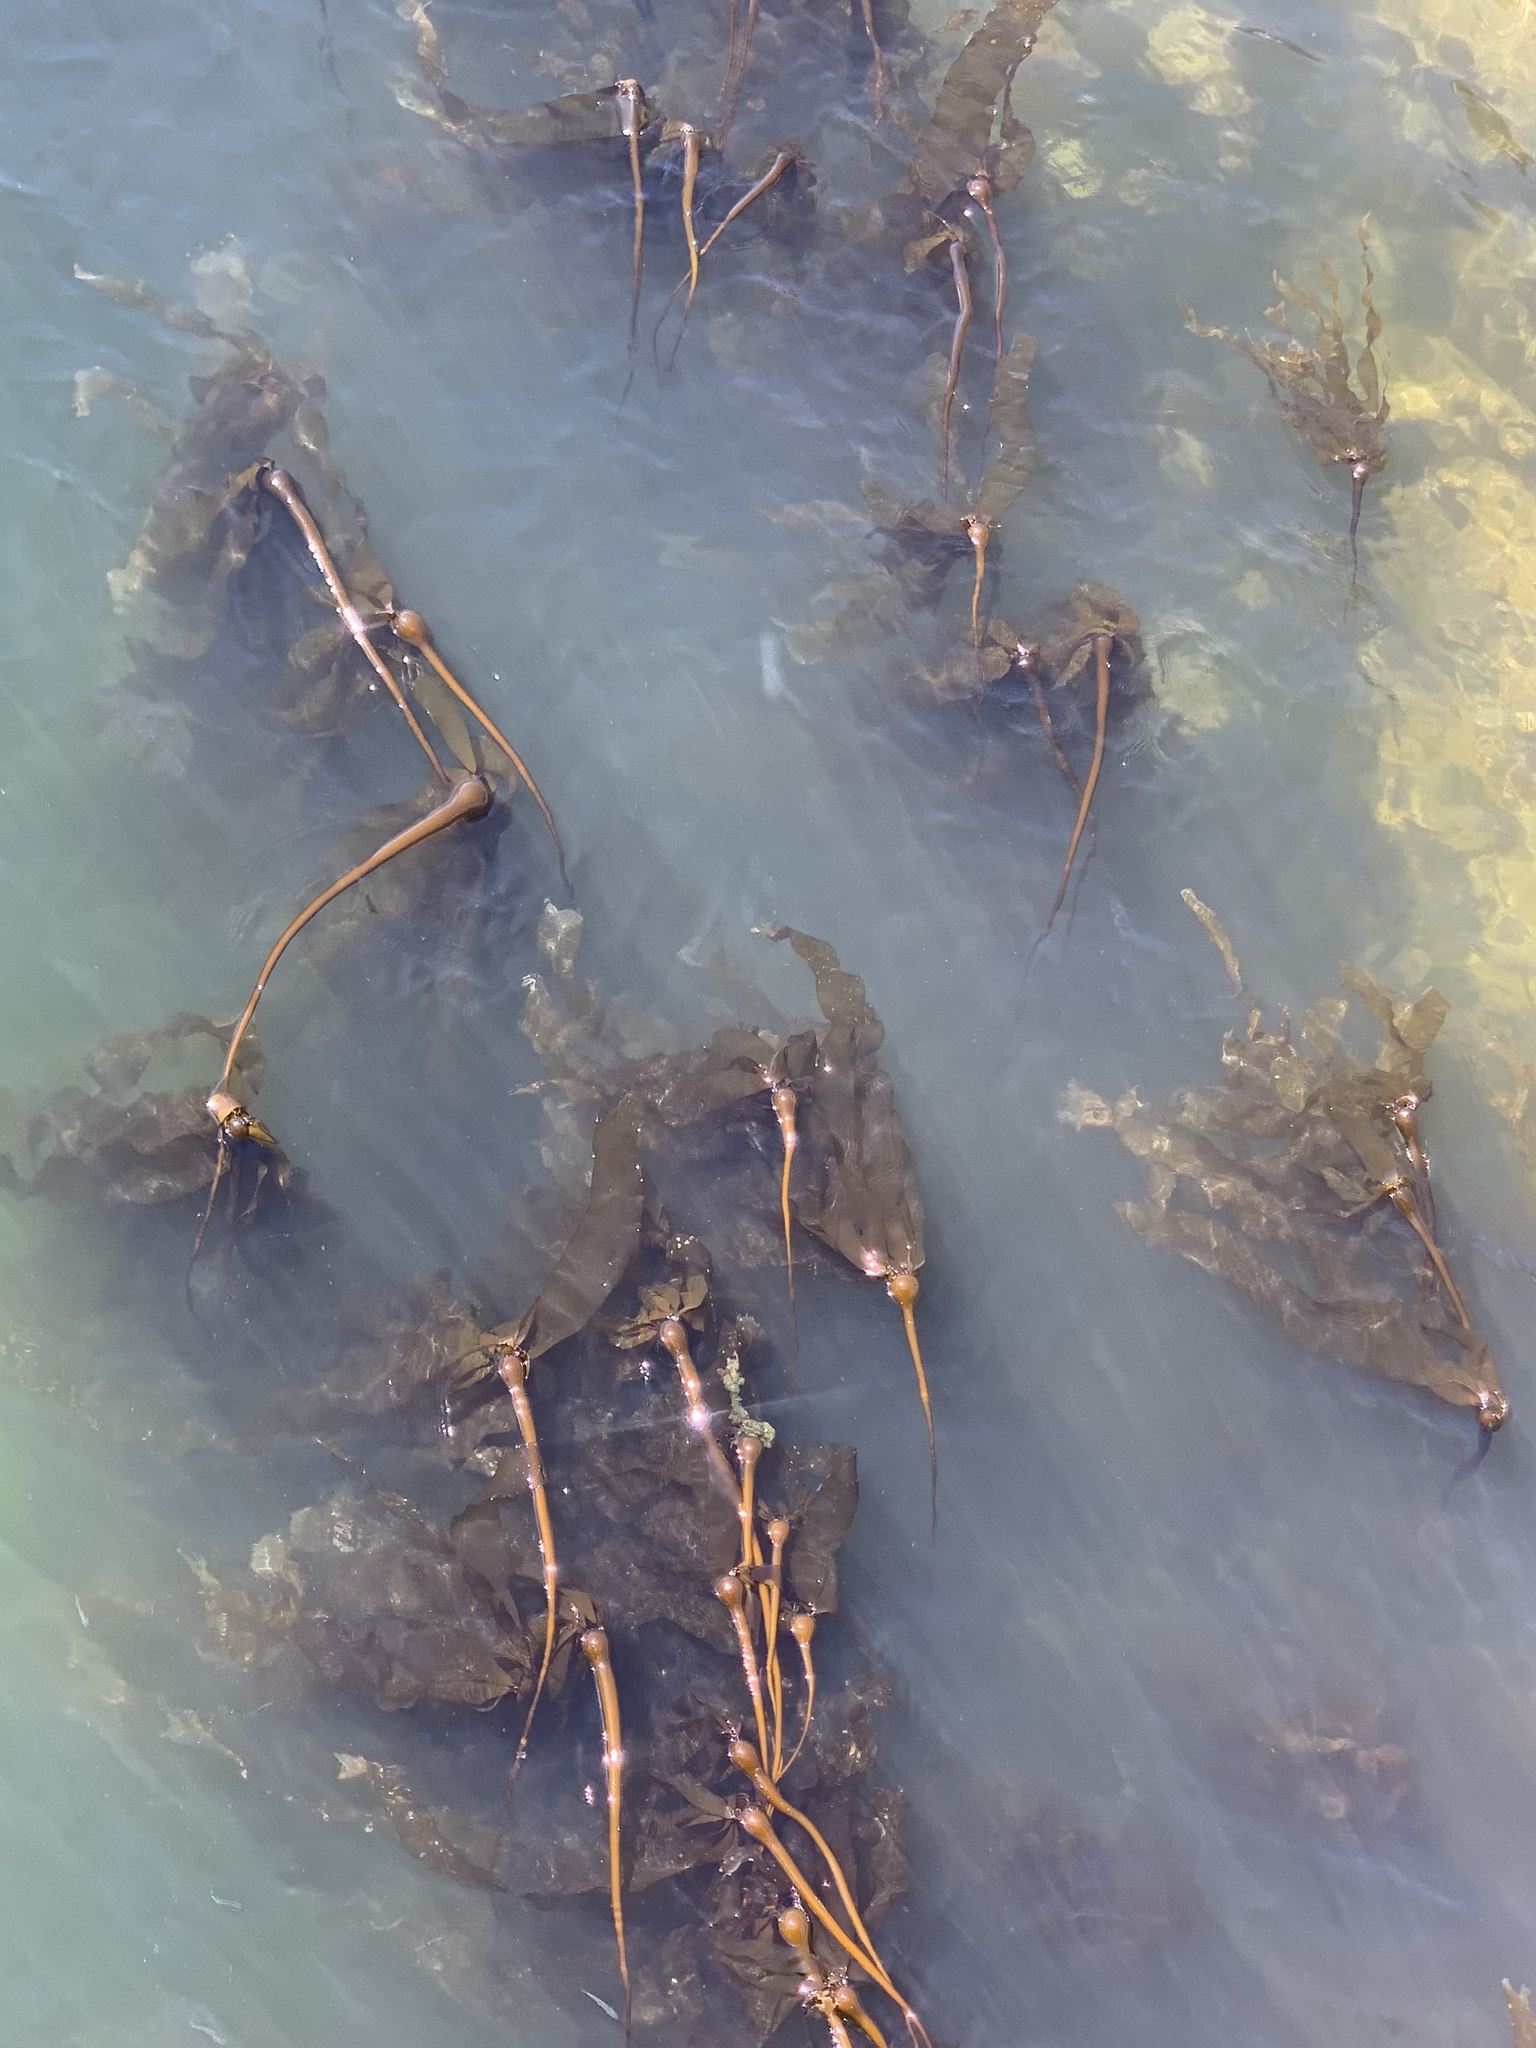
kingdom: Chromista
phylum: Ochrophyta
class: Phaeophyceae
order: Laminariales
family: Laminariaceae
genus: Nereocystis
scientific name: Nereocystis luetkeana
